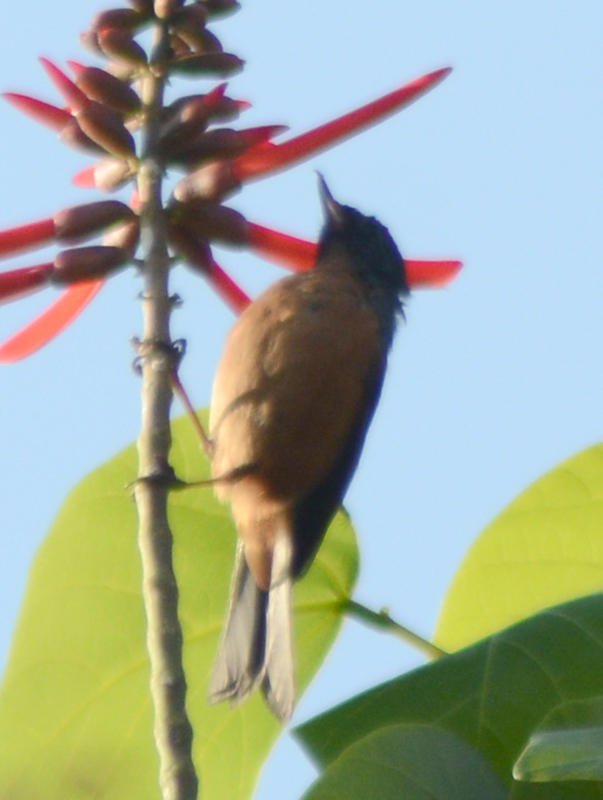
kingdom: Animalia
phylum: Chordata
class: Aves
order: Passeriformes
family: Thraupidae
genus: Diglossa
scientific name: Diglossa baritula
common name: Cinnamon-bellied flowerpiercer
